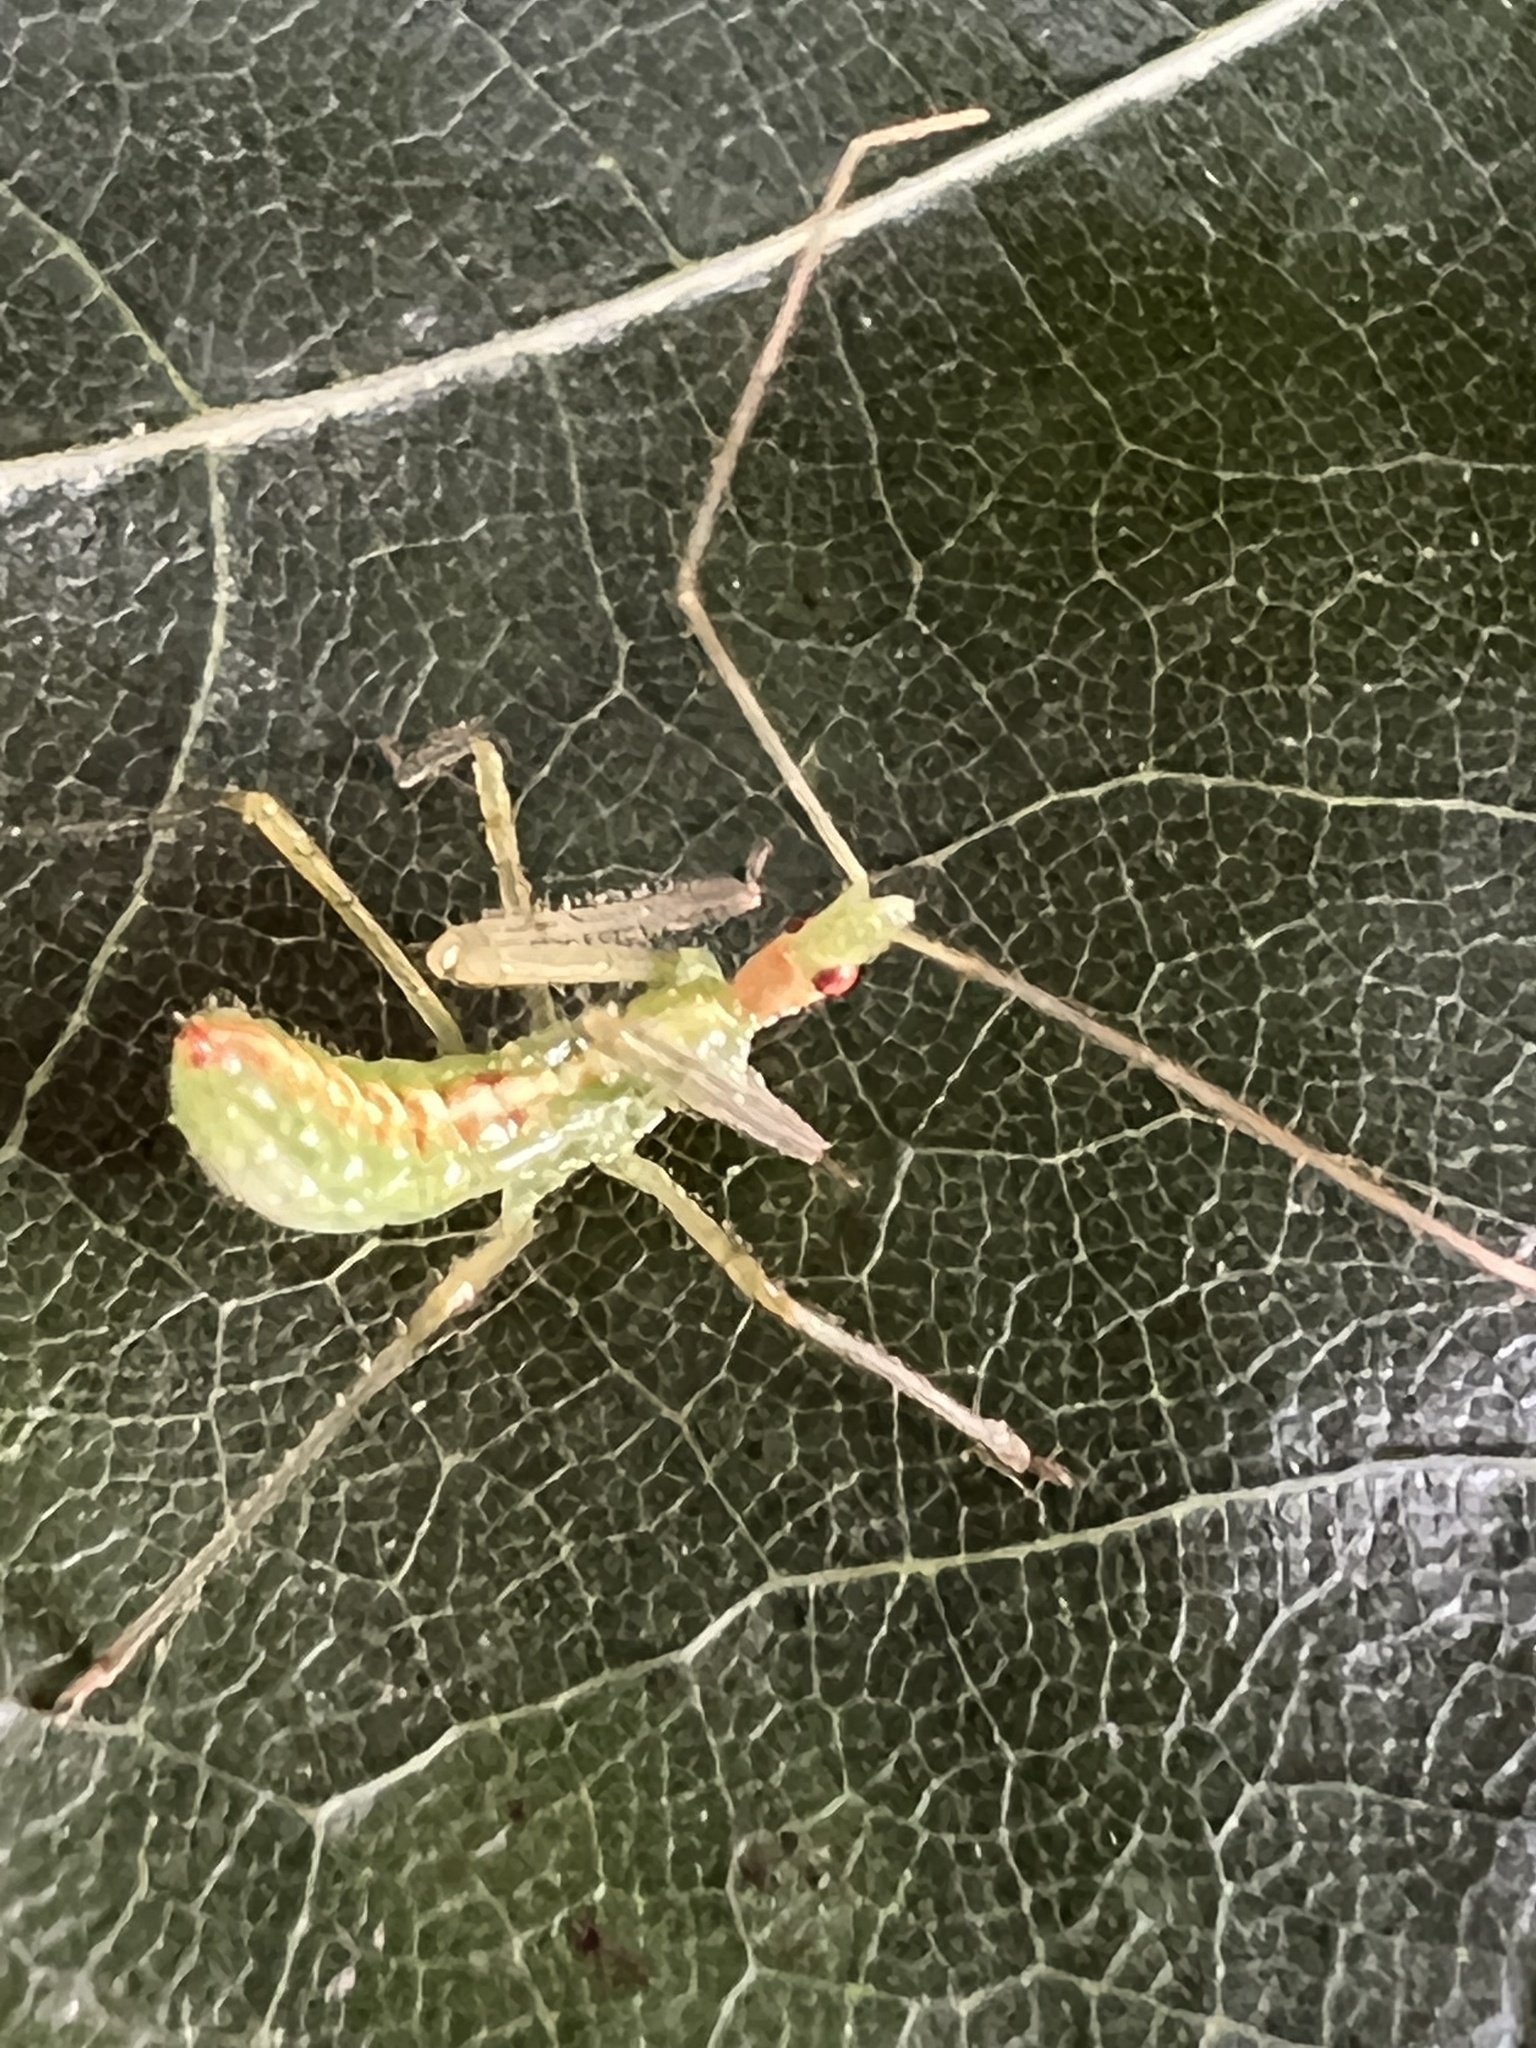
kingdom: Animalia
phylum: Arthropoda
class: Insecta
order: Hemiptera
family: Reduviidae
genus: Zelus
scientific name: Zelus luridus
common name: Pale green assassin bug
